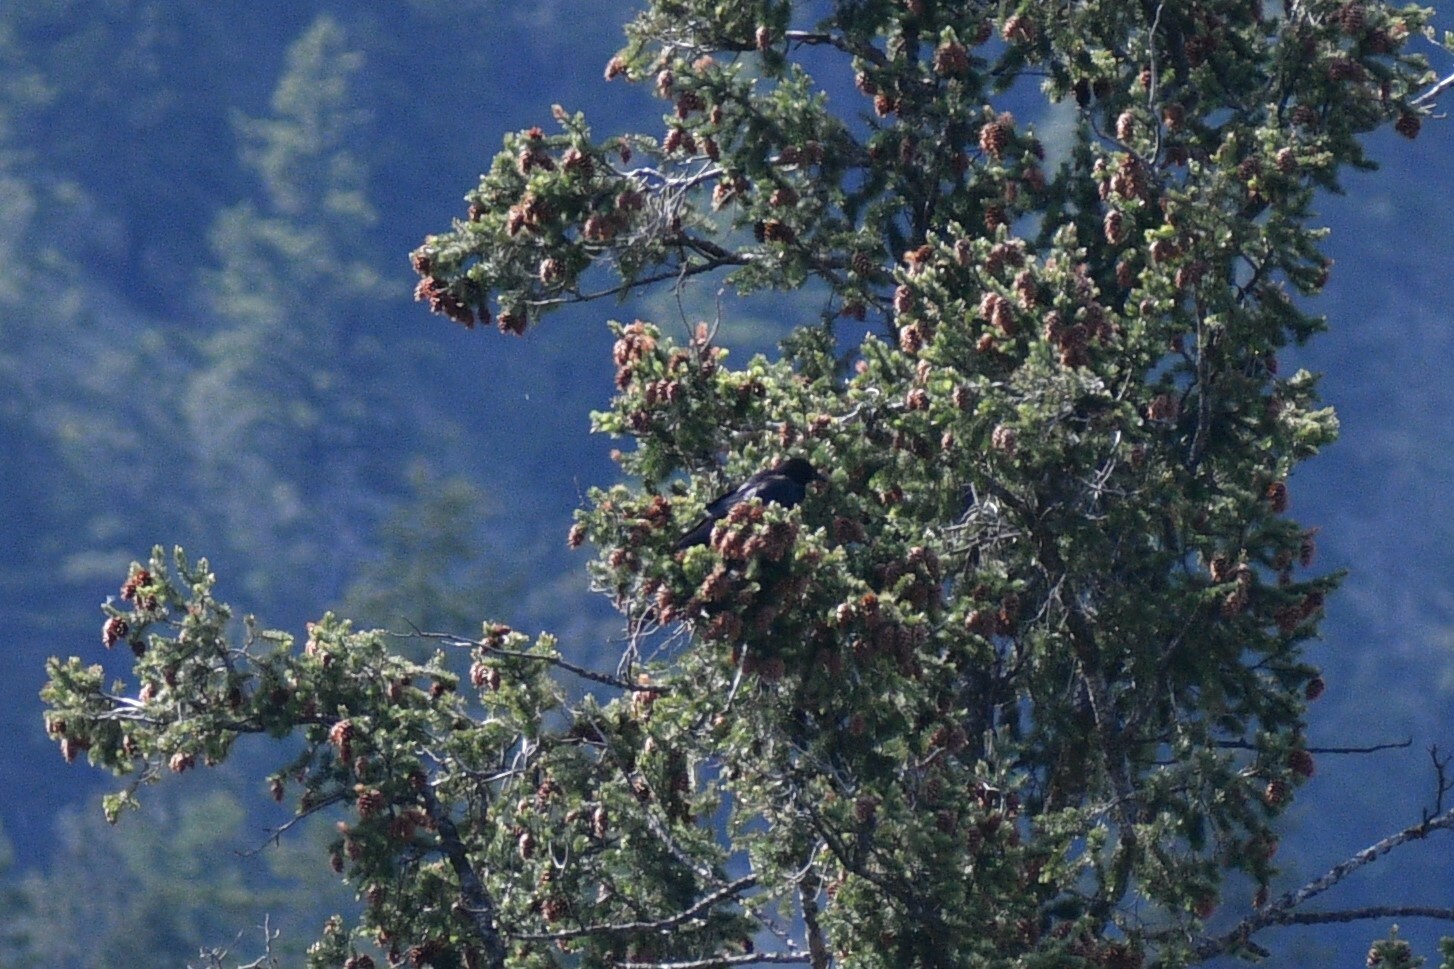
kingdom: Animalia
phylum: Chordata
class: Aves
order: Passeriformes
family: Corvidae
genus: Corvus
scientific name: Corvus brachyrhynchos
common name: American crow
